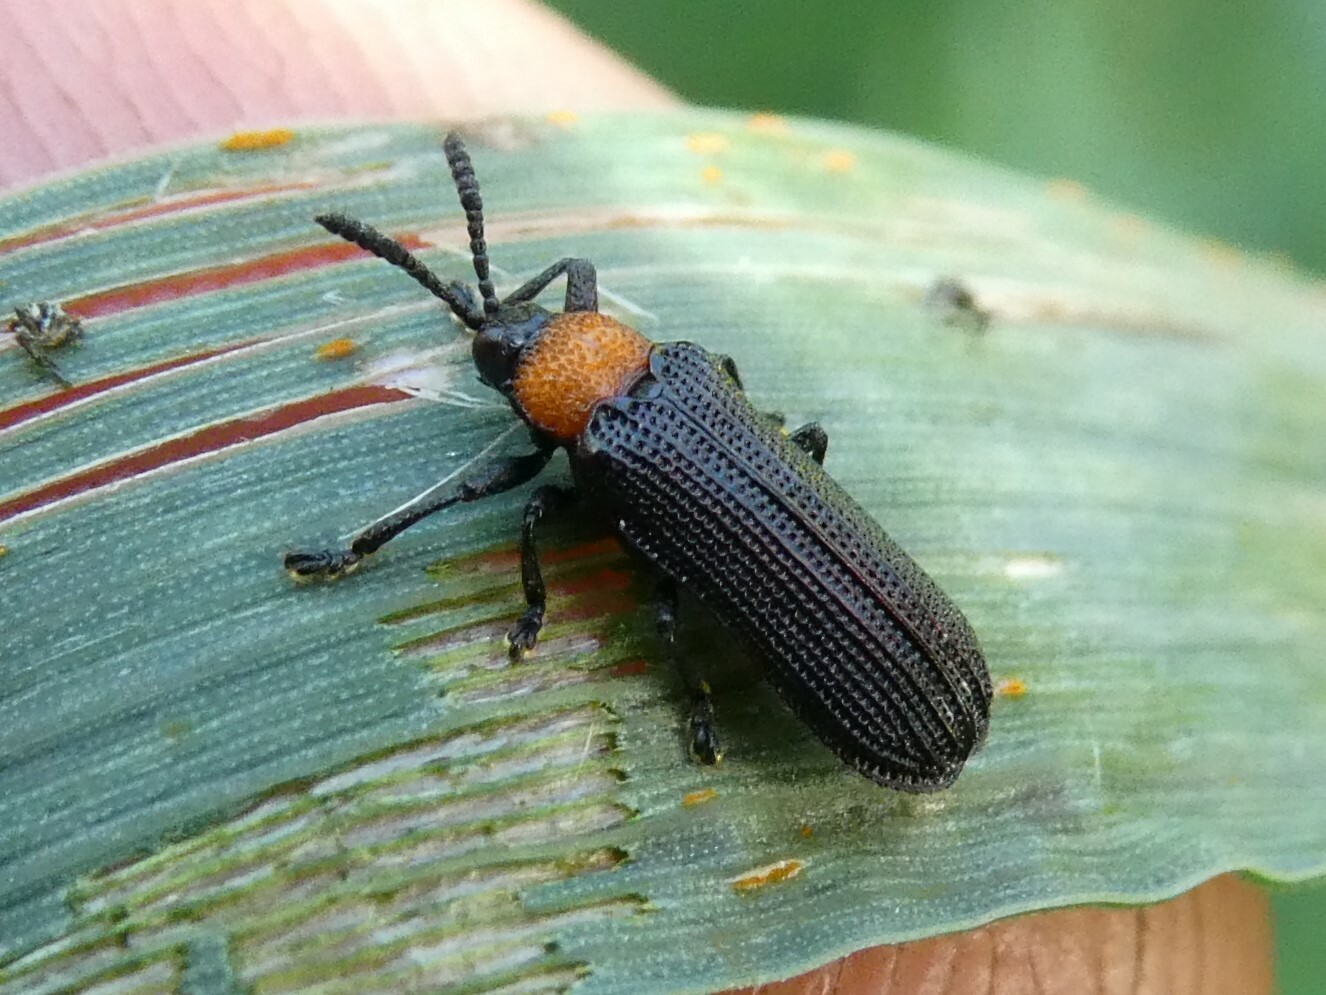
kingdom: Animalia
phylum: Arthropoda
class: Insecta
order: Coleoptera
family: Chrysomelidae
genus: Chalepus
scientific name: Chalepus walshii
